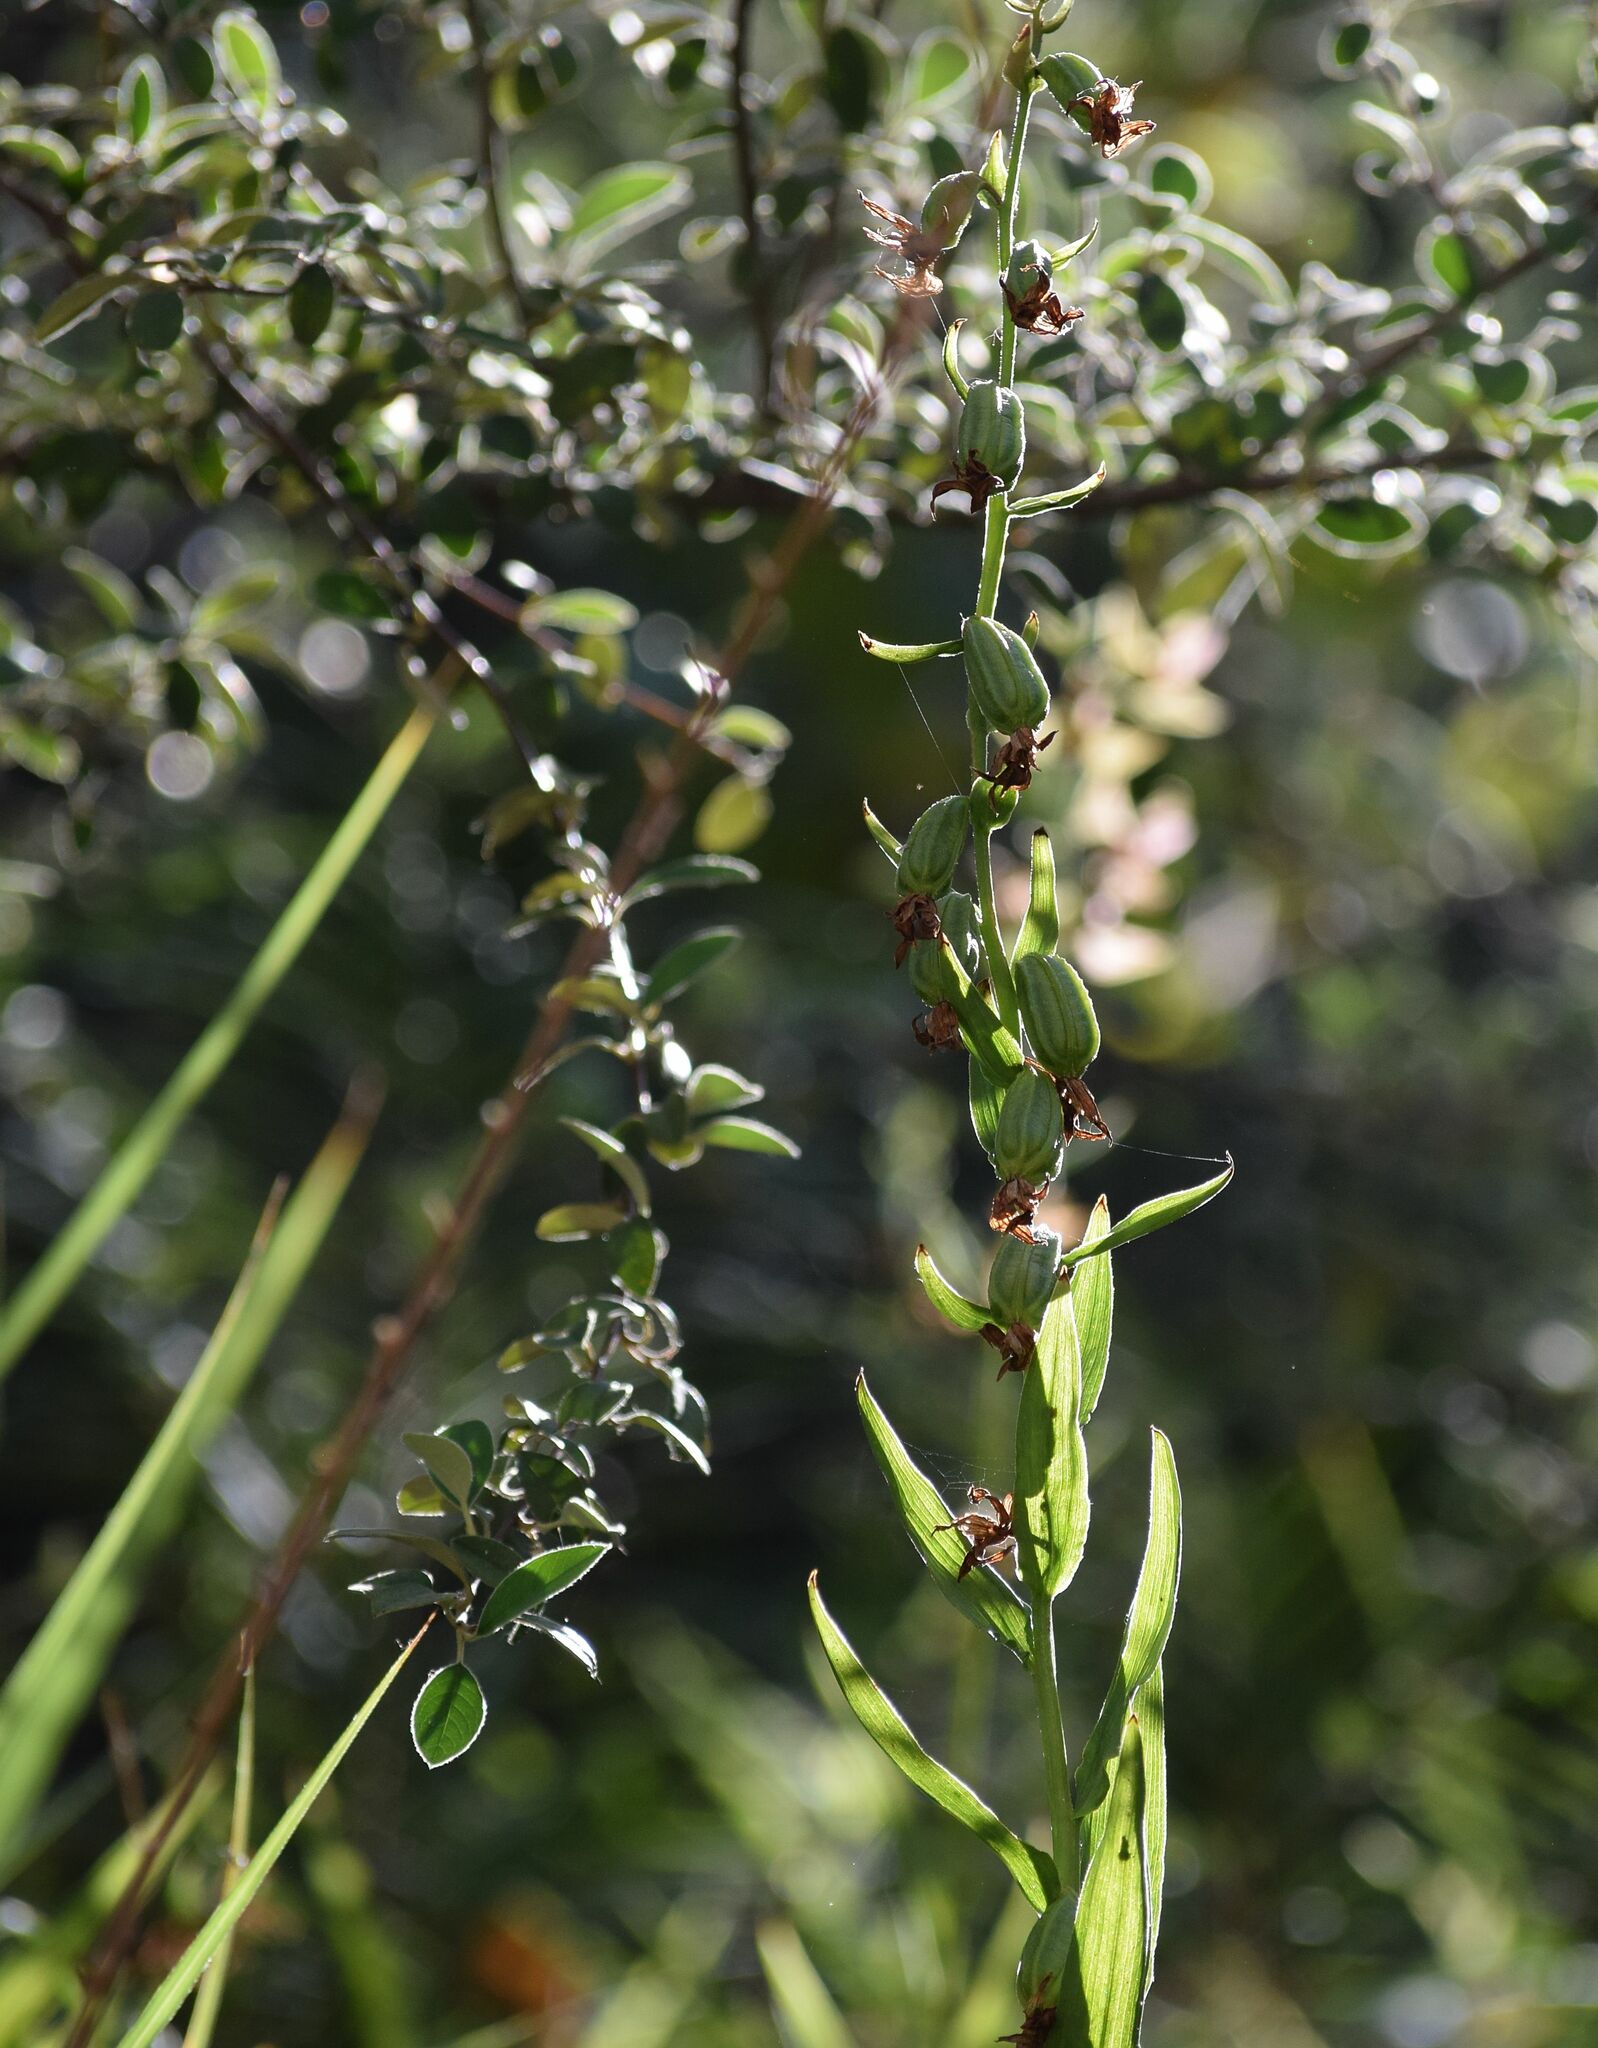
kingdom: Plantae
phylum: Tracheophyta
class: Liliopsida
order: Asparagales
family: Orchidaceae
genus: Epipactis
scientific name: Epipactis gigantea
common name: Chatterbox
